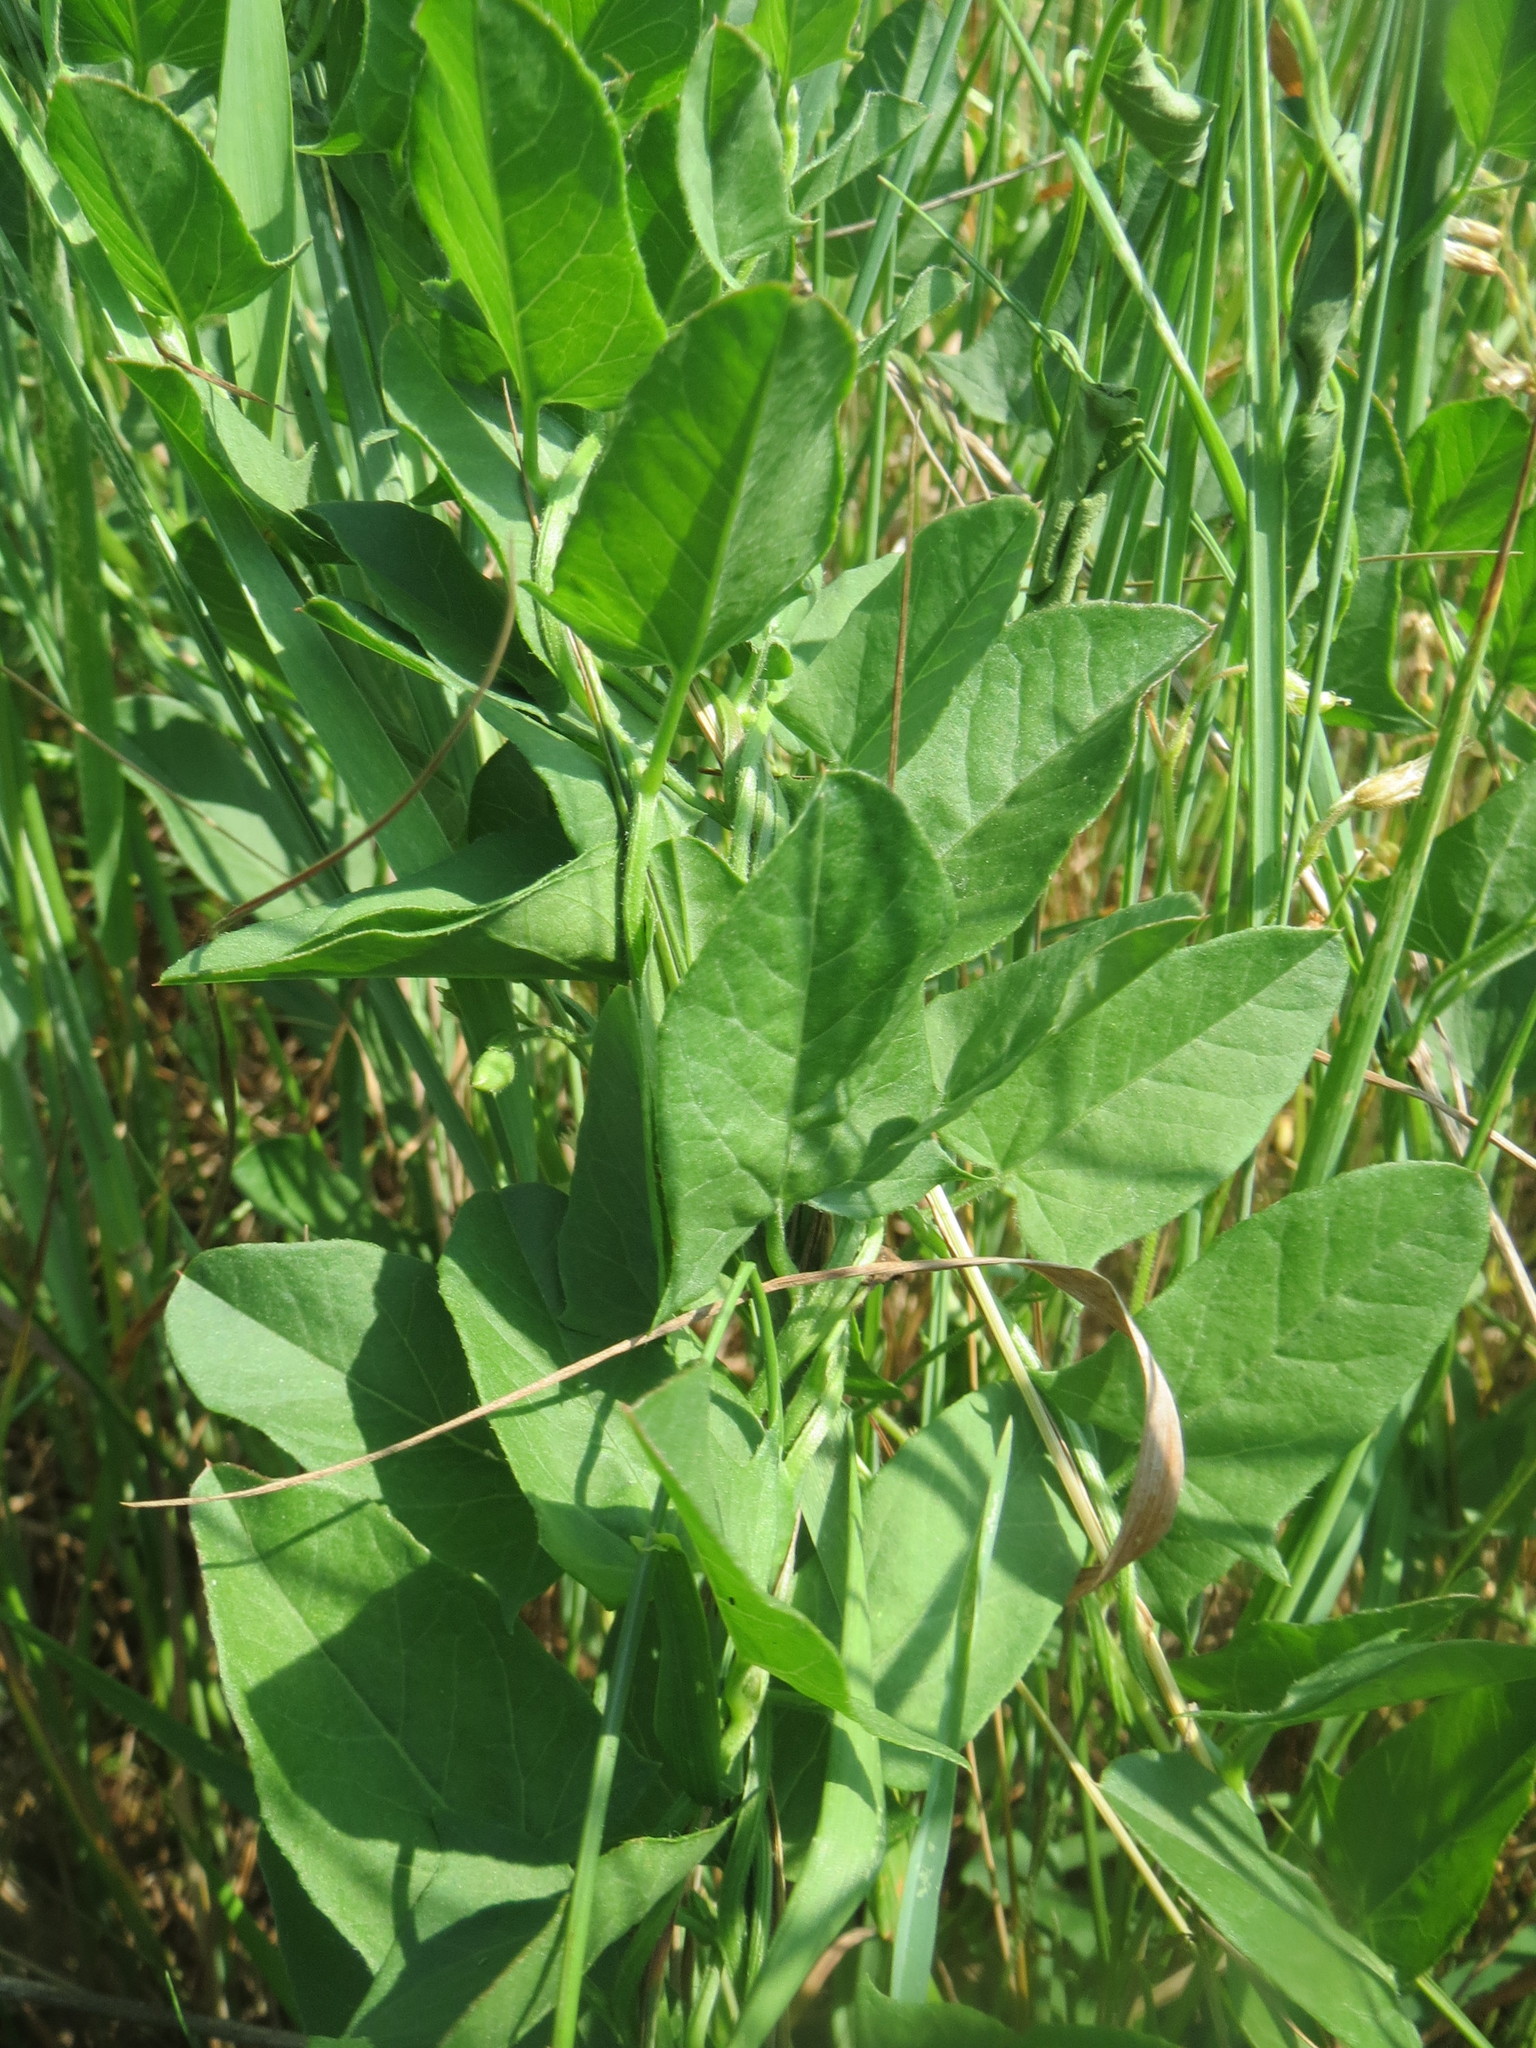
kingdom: Plantae
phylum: Tracheophyta
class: Magnoliopsida
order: Solanales
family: Convolvulaceae
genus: Convolvulus
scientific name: Convolvulus arvensis
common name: Field bindweed
